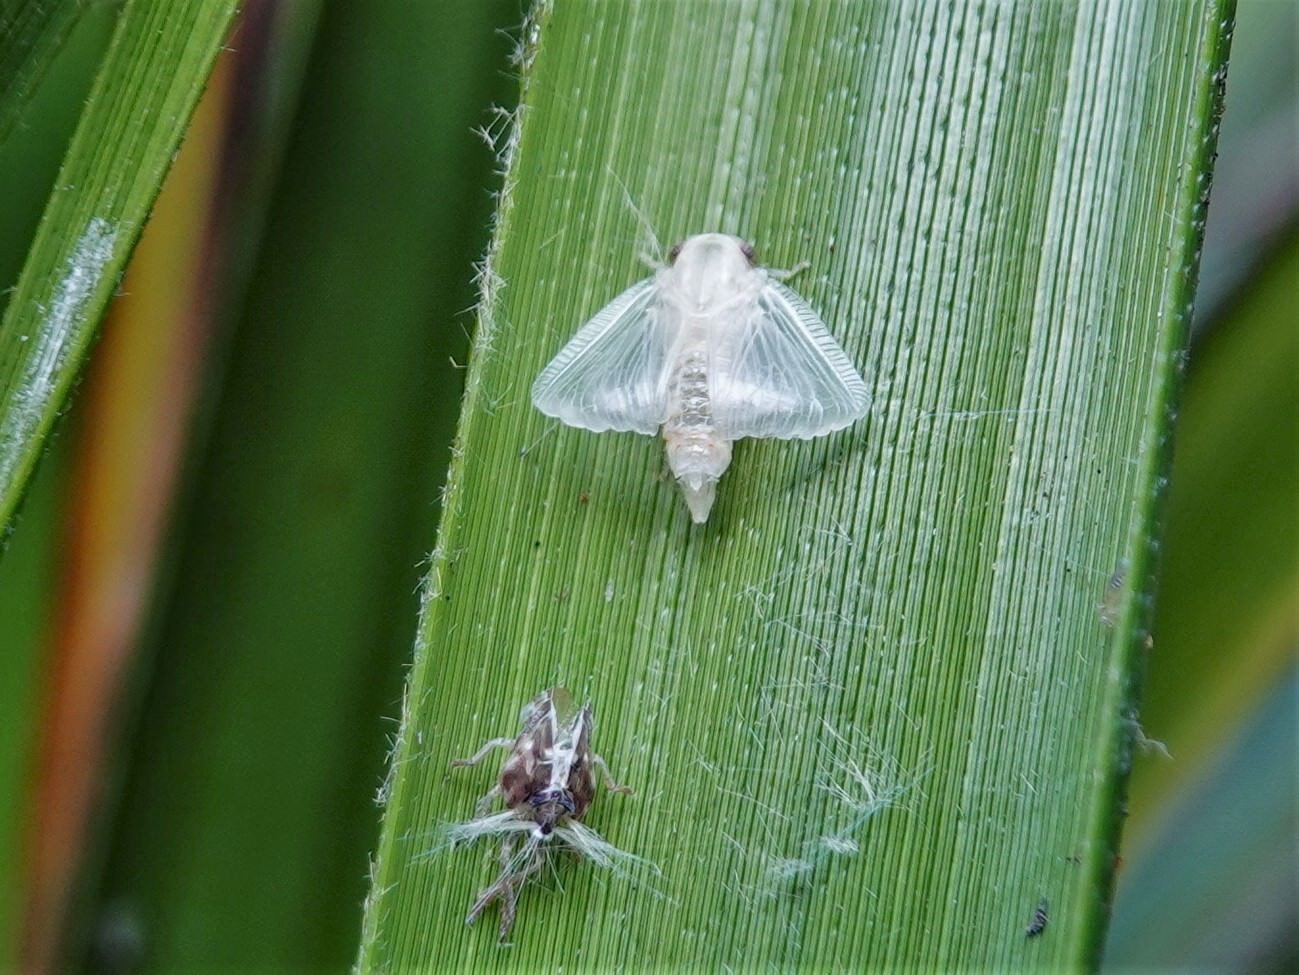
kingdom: Animalia
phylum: Arthropoda
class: Insecta
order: Hemiptera
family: Ricaniidae
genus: Scolypopa
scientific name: Scolypopa australis
